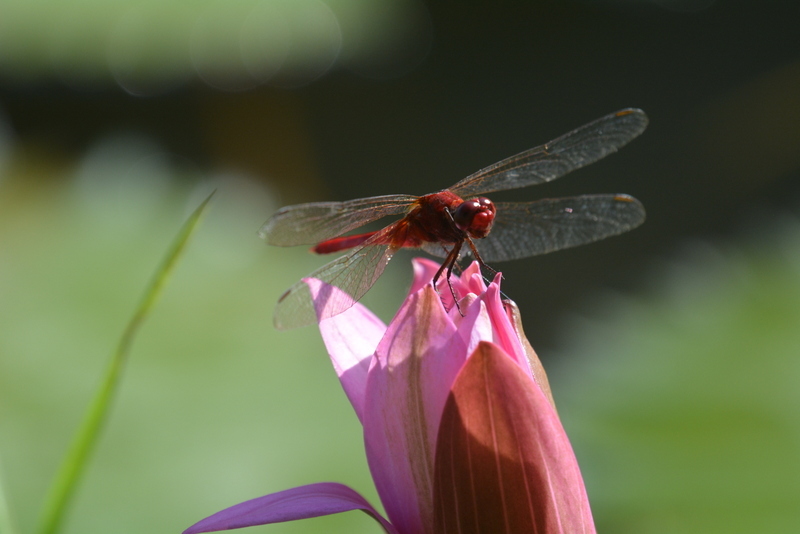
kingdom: Animalia
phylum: Arthropoda
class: Insecta
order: Odonata
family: Libellulidae
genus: Crocothemis
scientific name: Crocothemis servilia
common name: Scarlet skimmer
